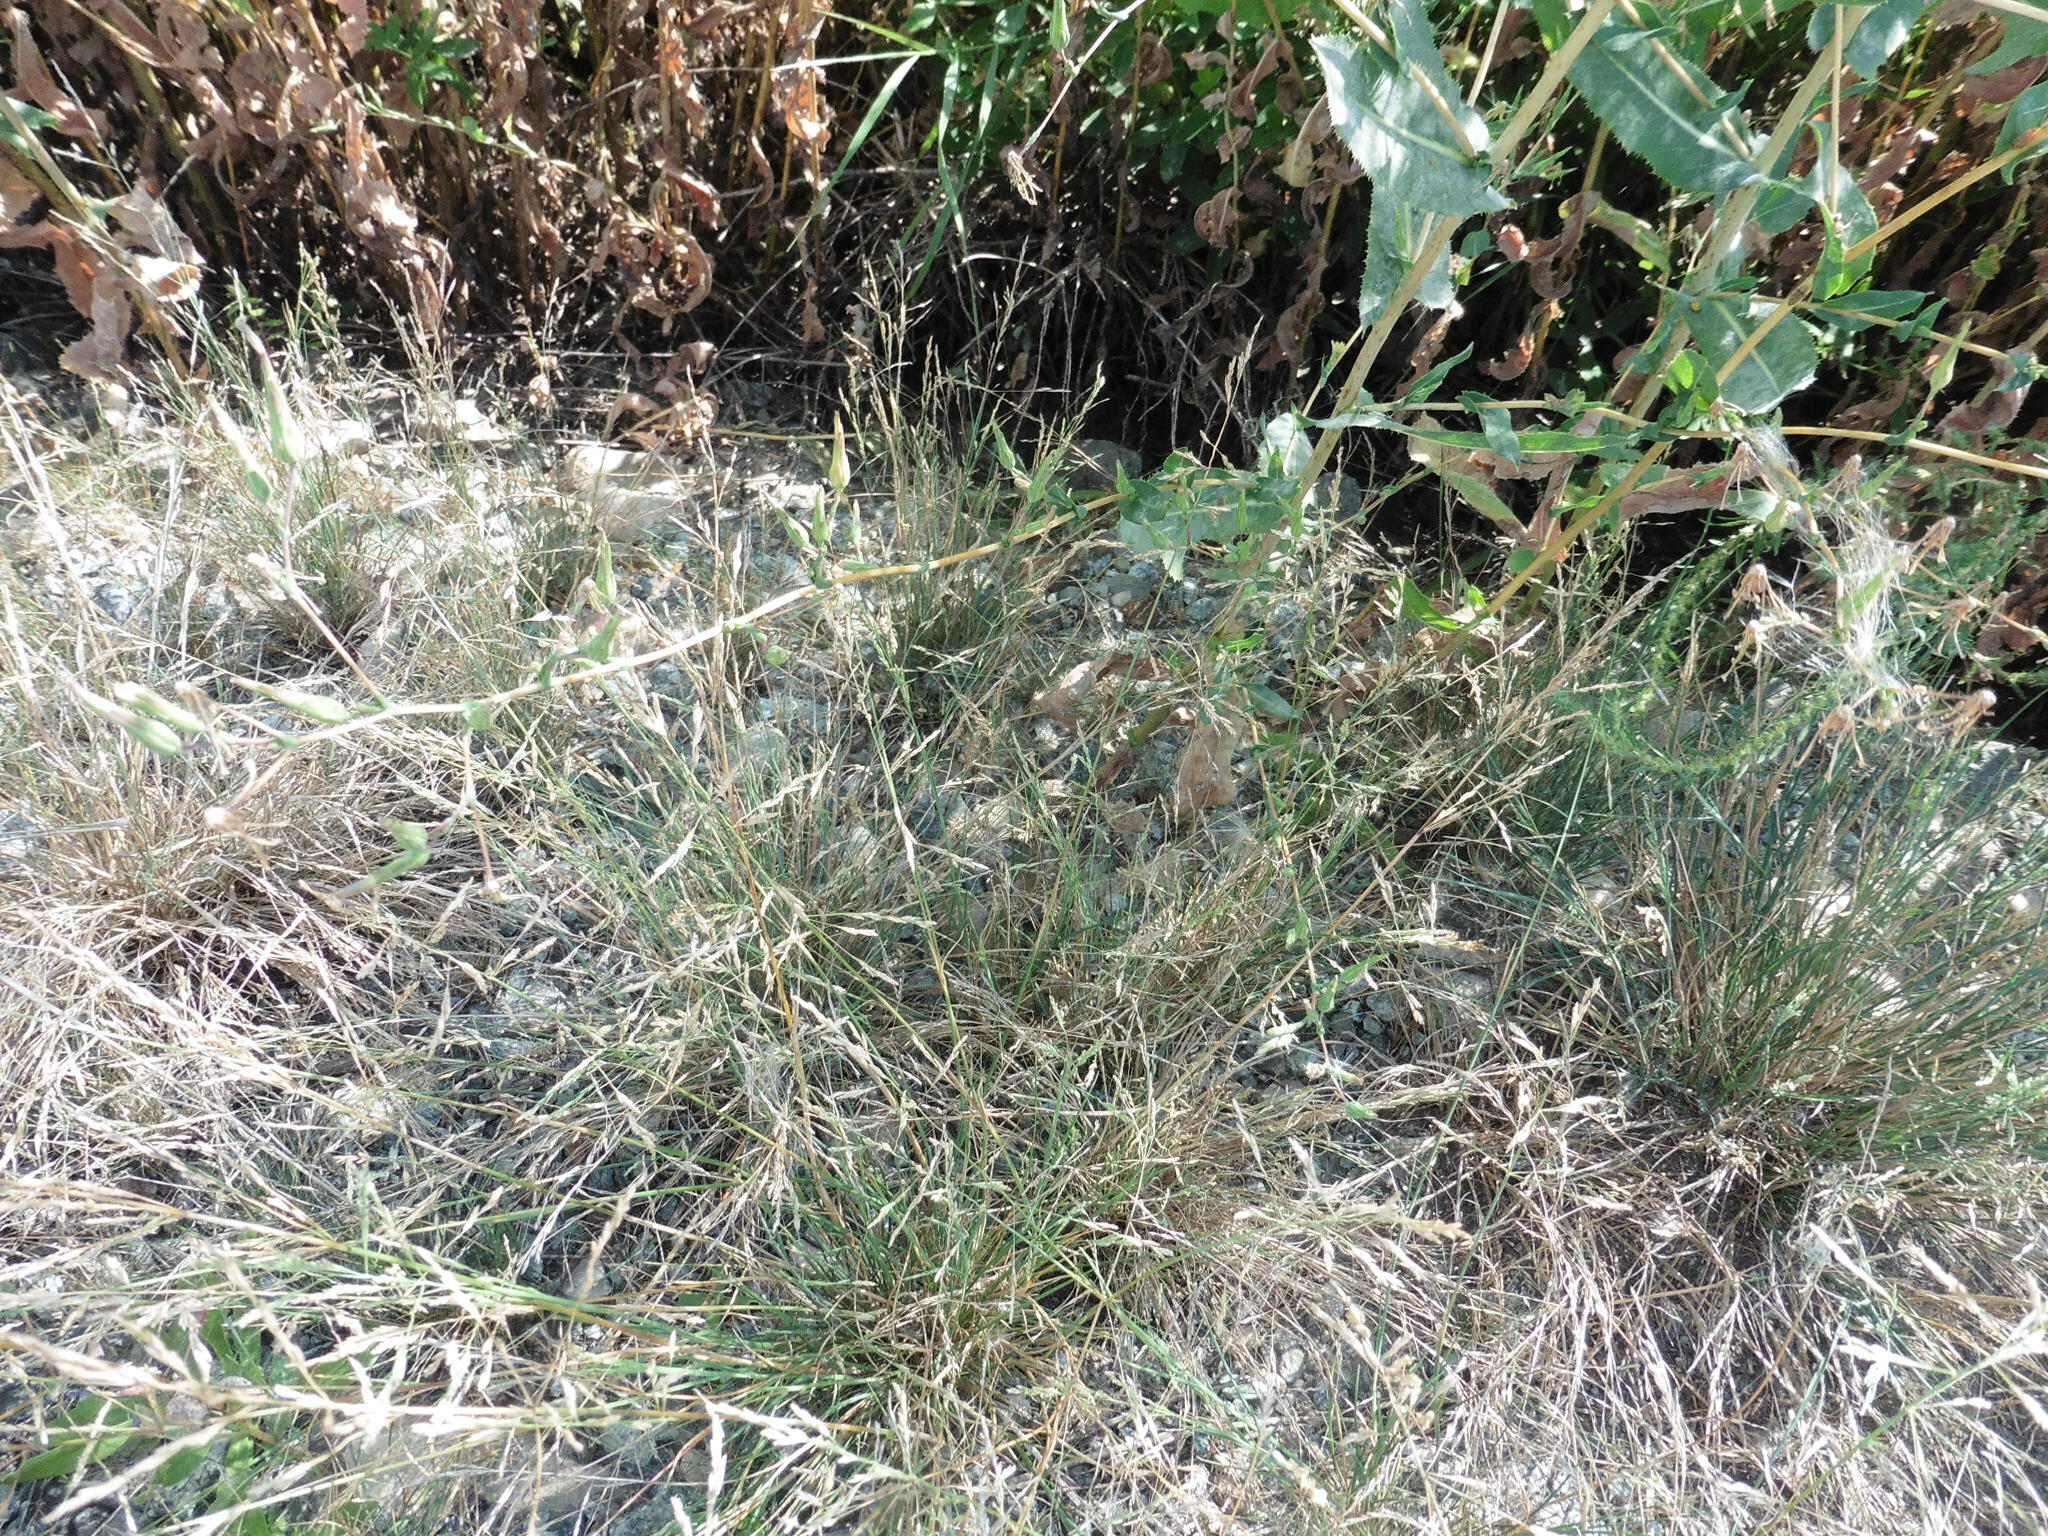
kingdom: Plantae
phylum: Tracheophyta
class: Liliopsida
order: Poales
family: Poaceae
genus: Puccinellia
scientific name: Puccinellia distans
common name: Weeping alkaligrass
